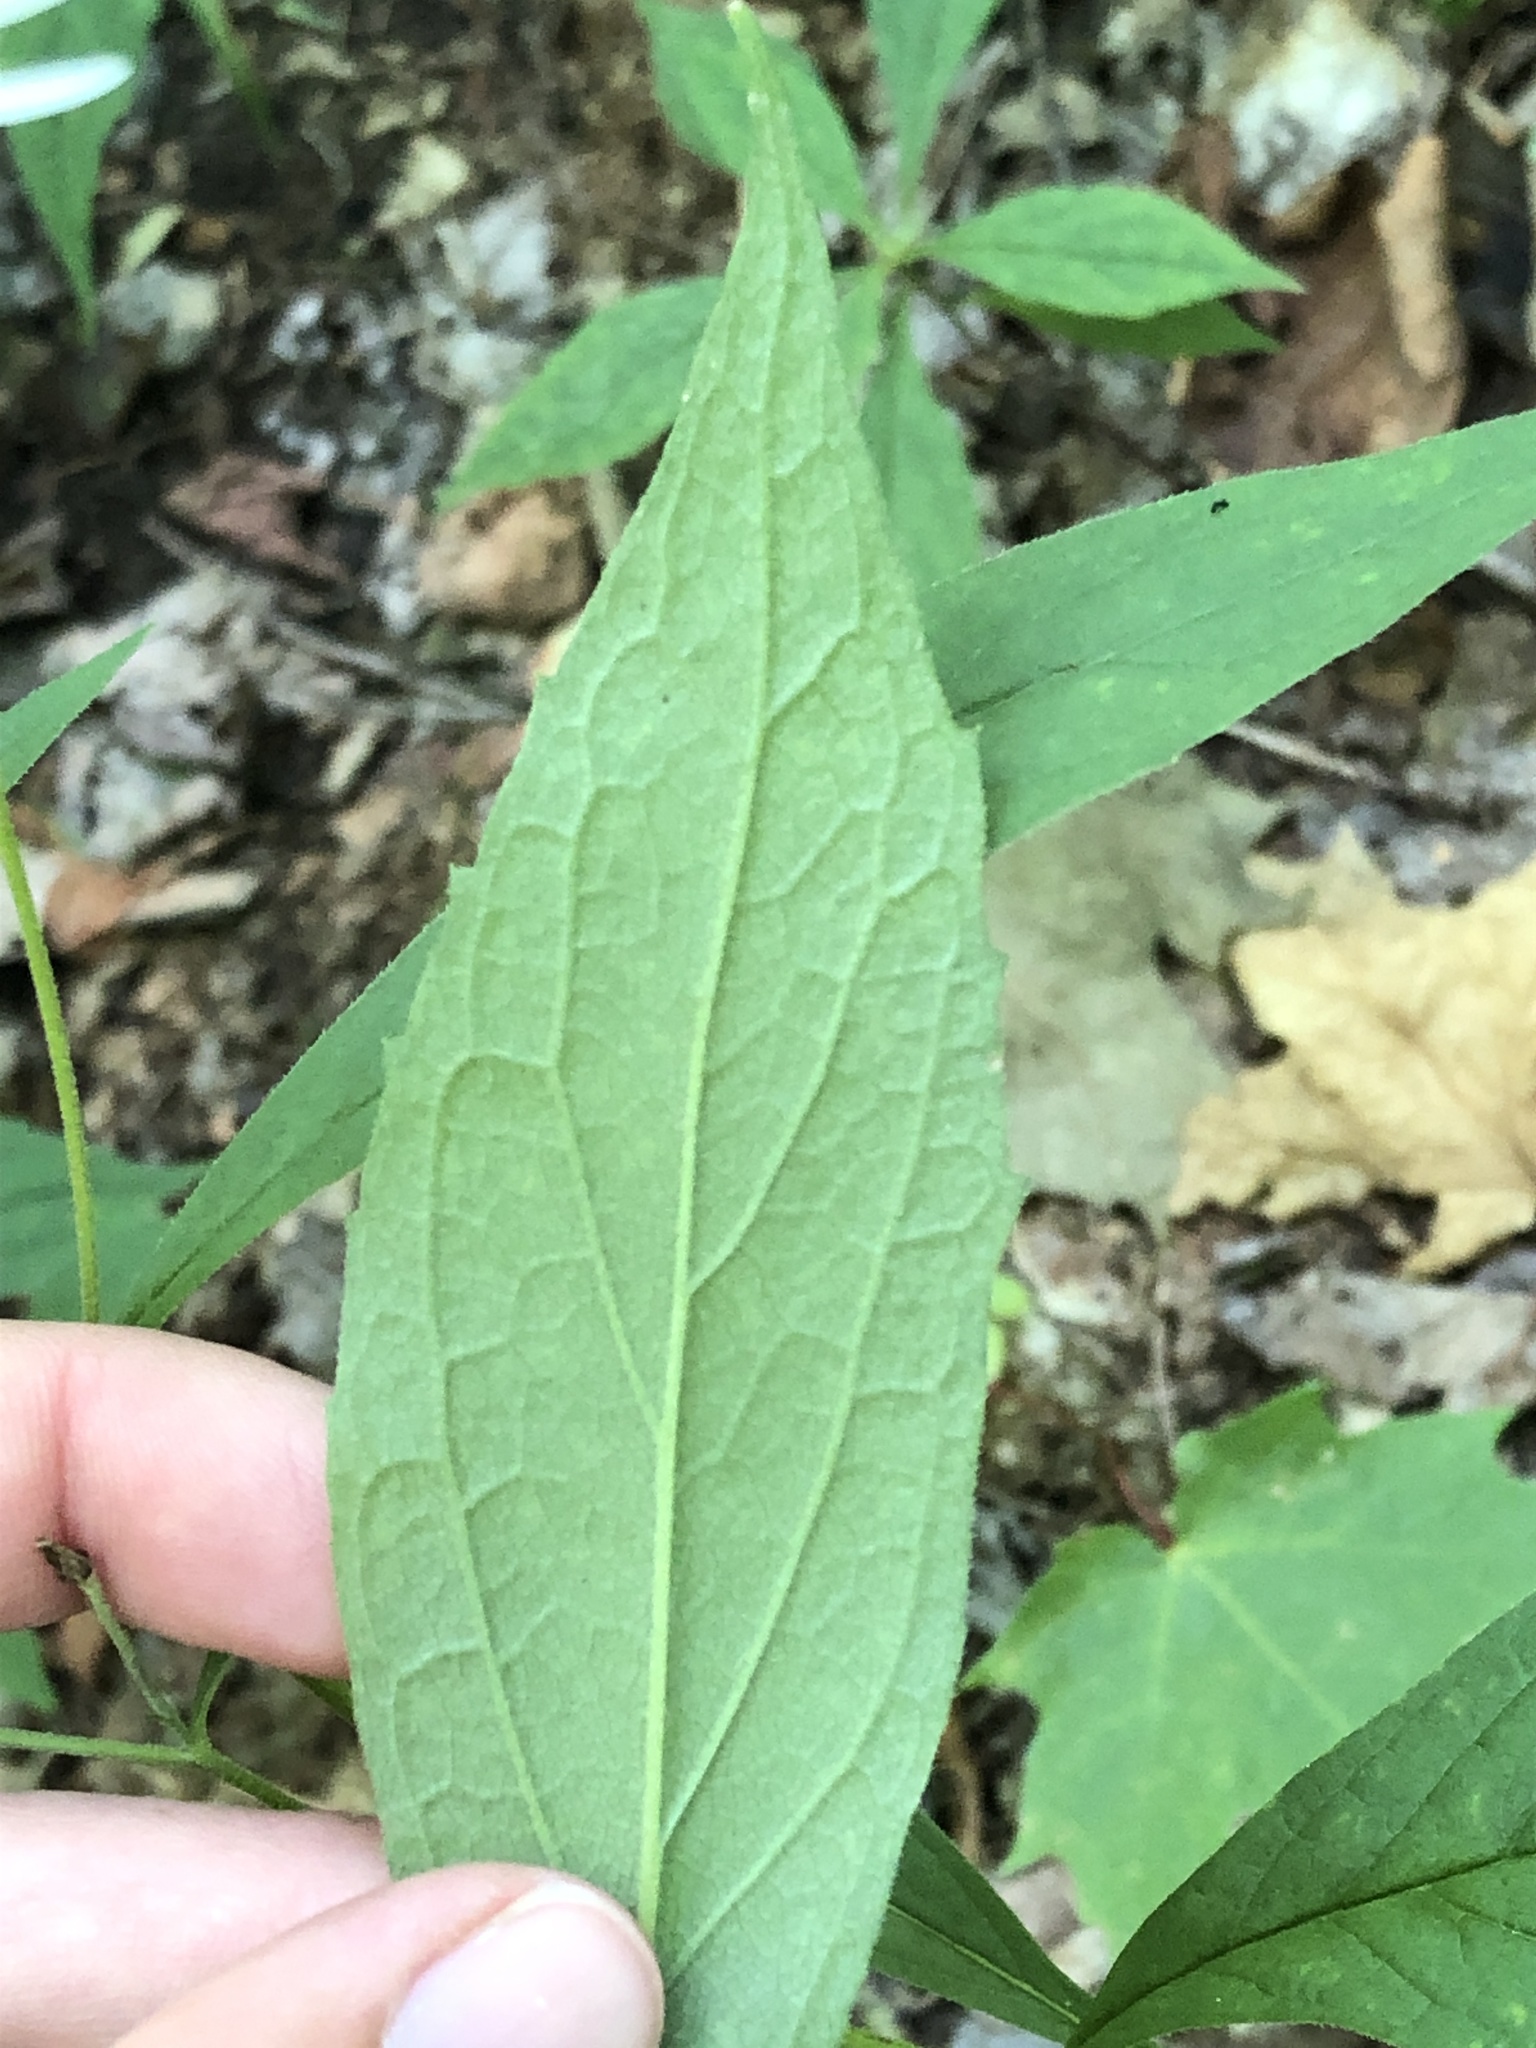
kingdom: Plantae
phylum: Tracheophyta
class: Magnoliopsida
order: Asterales
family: Asteraceae
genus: Oclemena
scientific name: Oclemena acuminata
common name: Mountain aster
